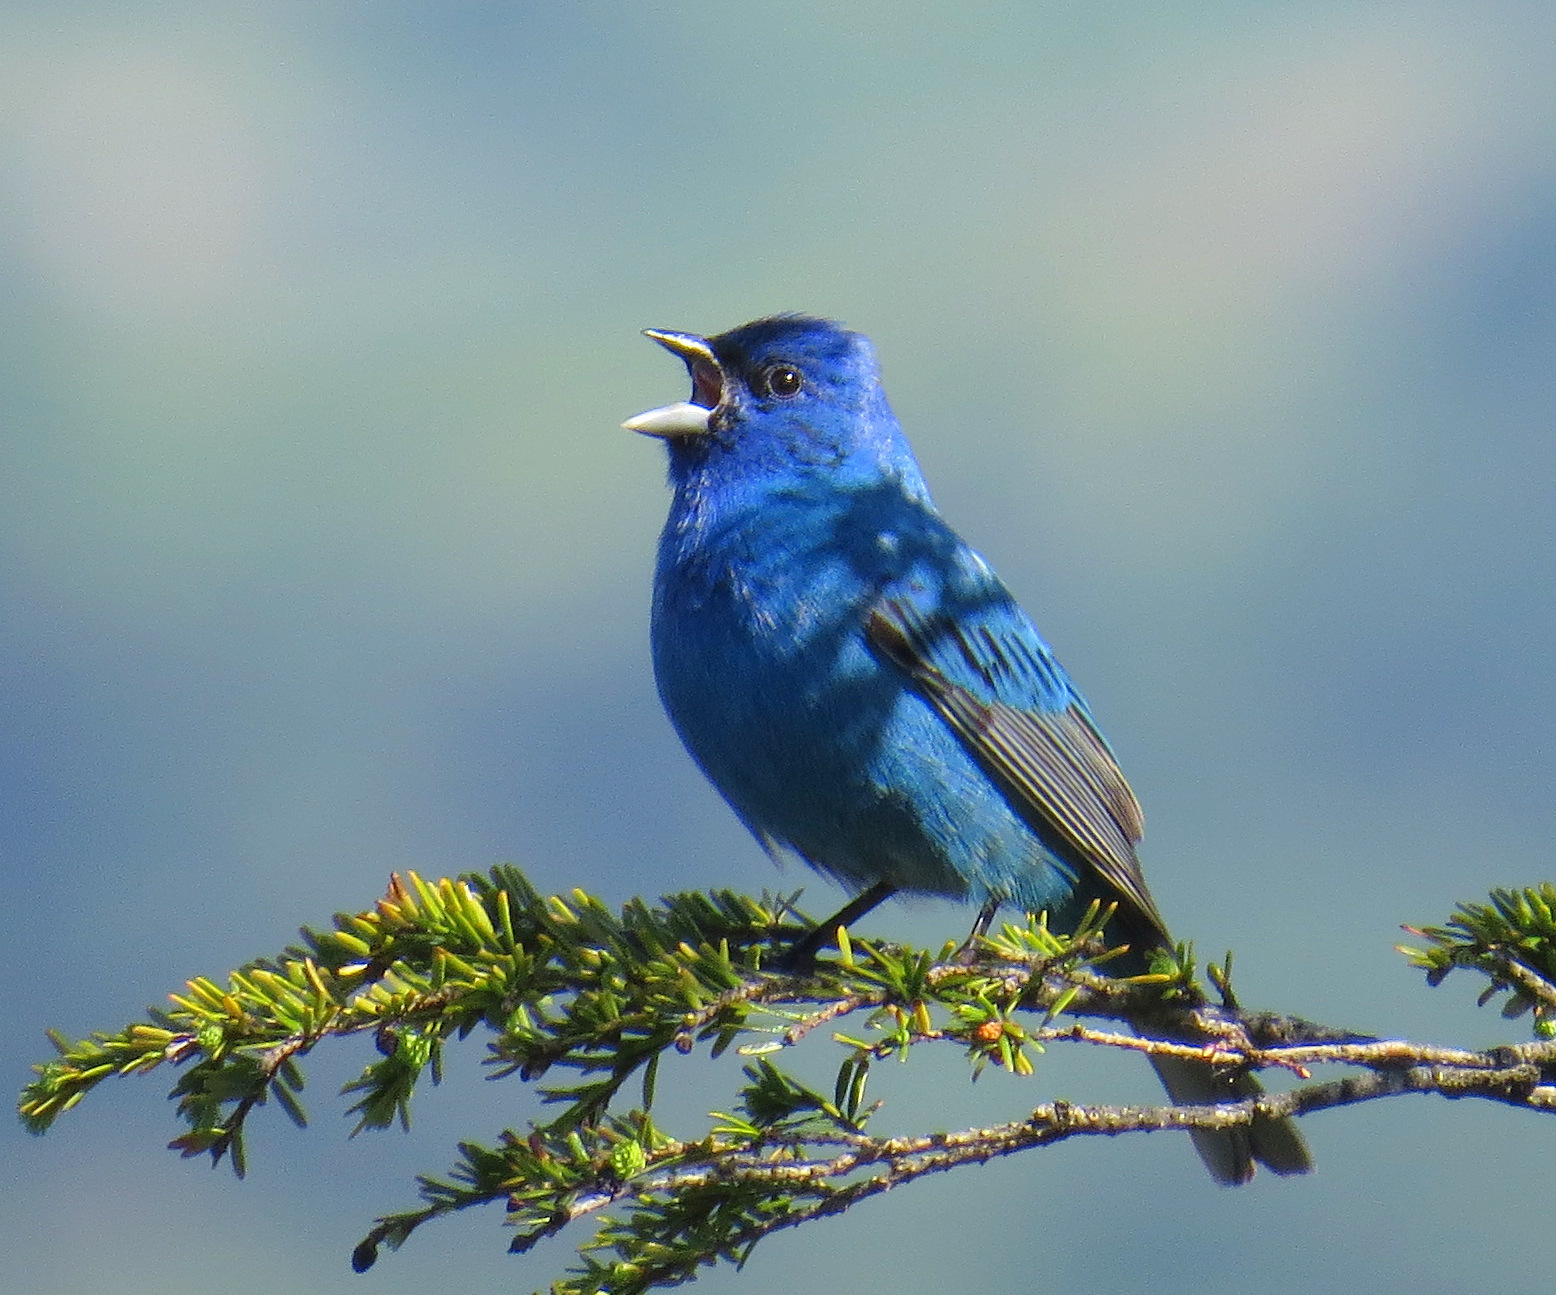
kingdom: Animalia
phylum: Chordata
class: Aves
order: Passeriformes
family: Cardinalidae
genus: Passerina
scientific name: Passerina cyanea
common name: Indigo bunting
